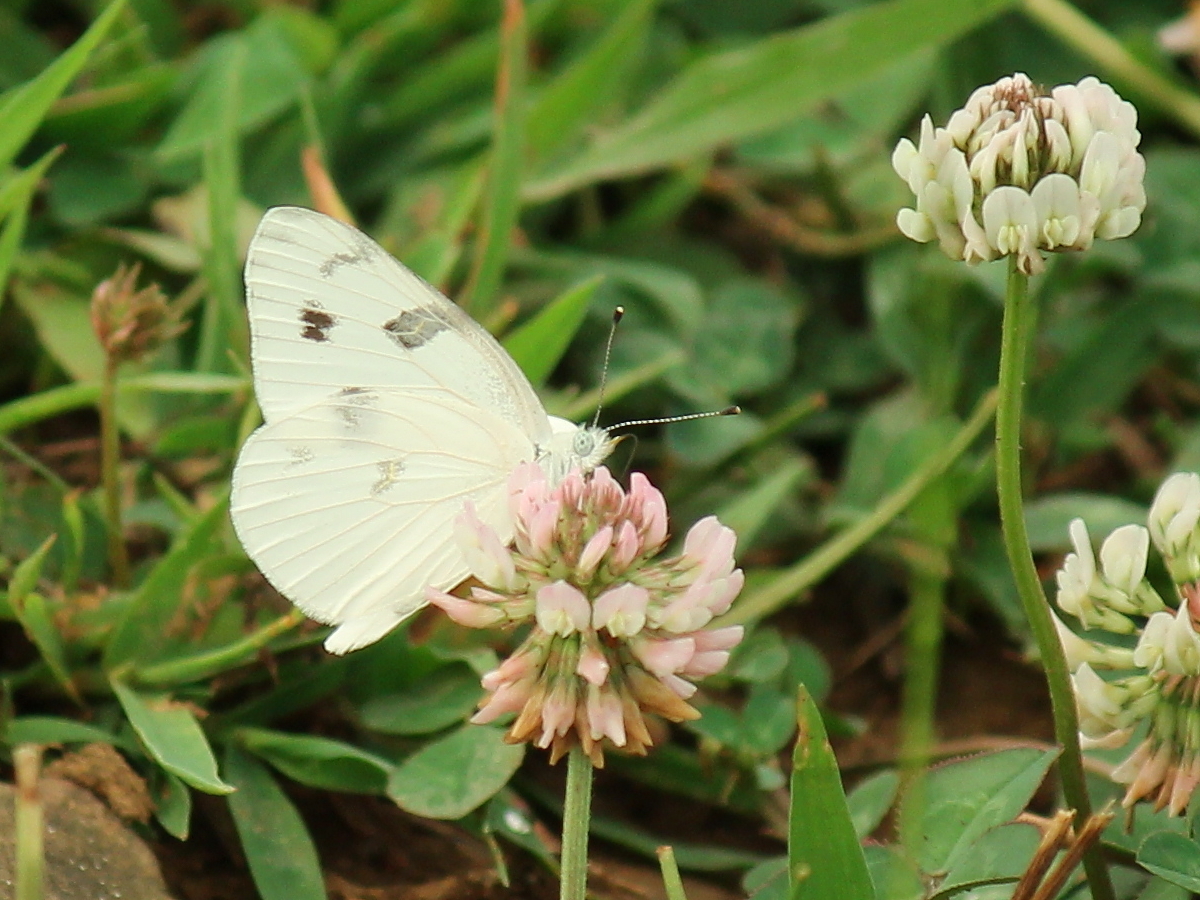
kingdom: Animalia
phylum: Arthropoda
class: Insecta
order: Lepidoptera
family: Pieridae
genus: Pontia
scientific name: Pontia protodice
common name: Checkered white
